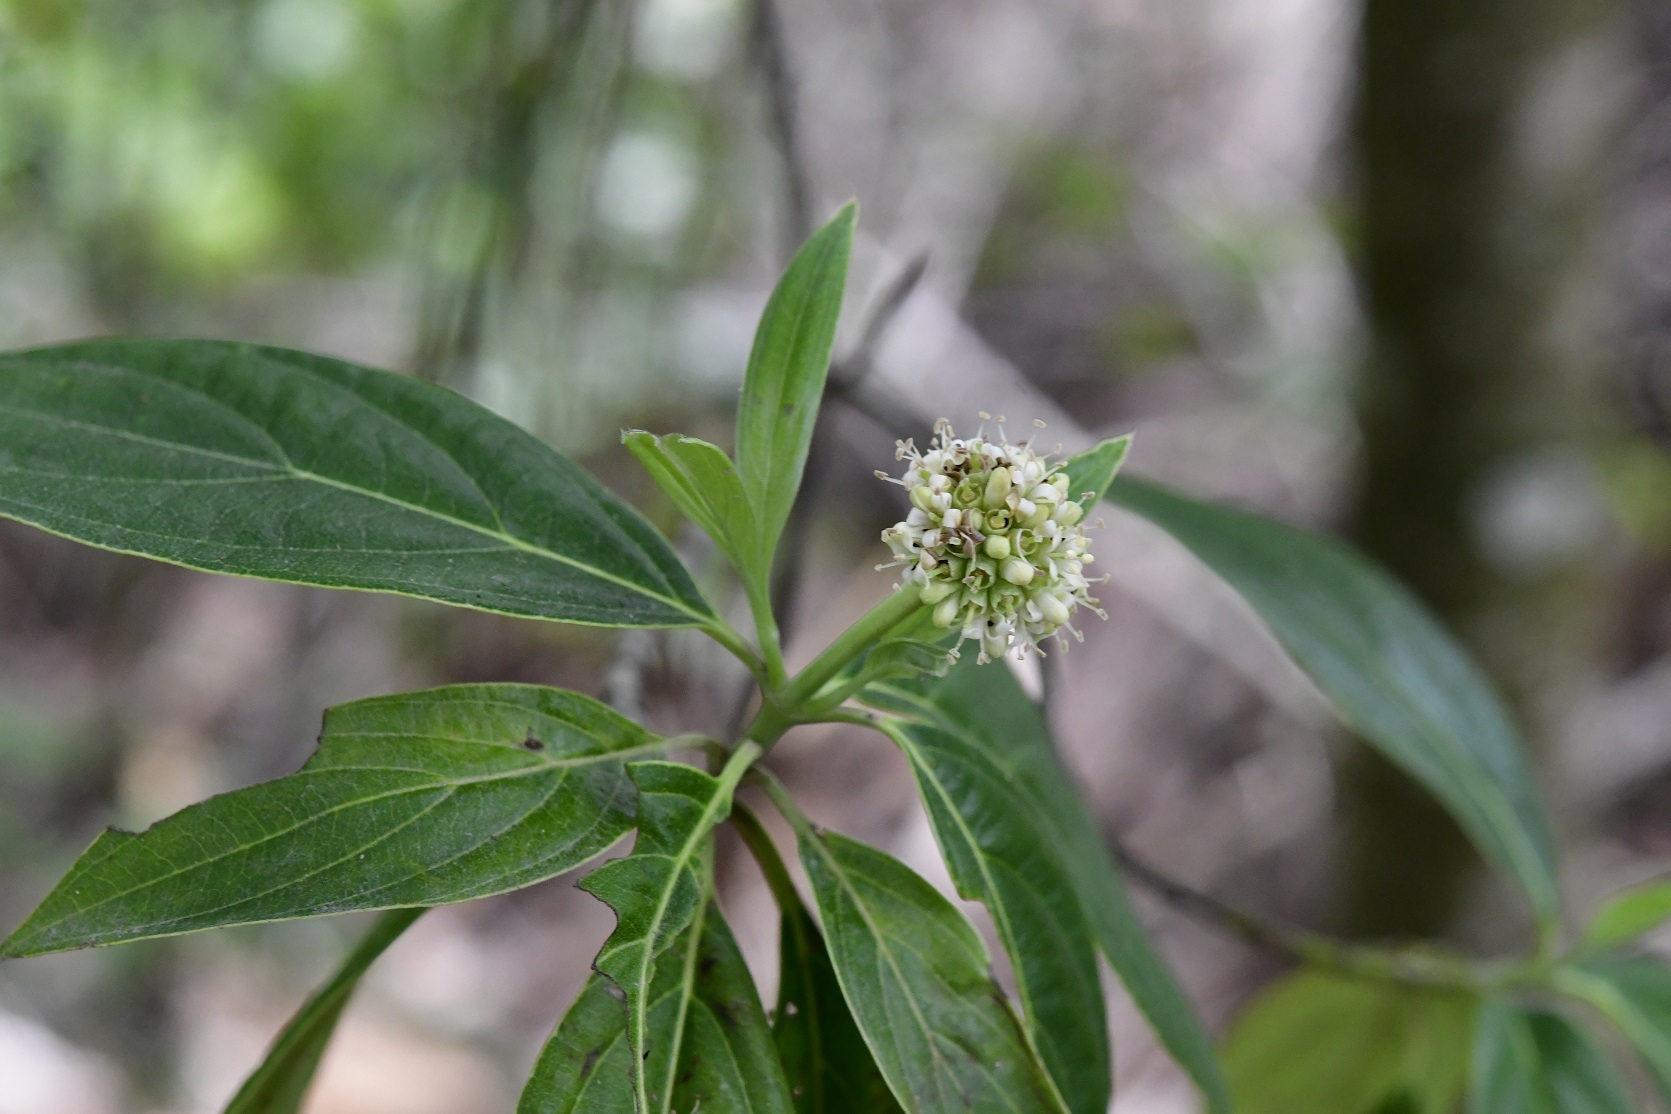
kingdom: Plantae
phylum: Tracheophyta
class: Magnoliopsida
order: Cornales
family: Cornaceae
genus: Cornus
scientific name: Cornus disciflora
